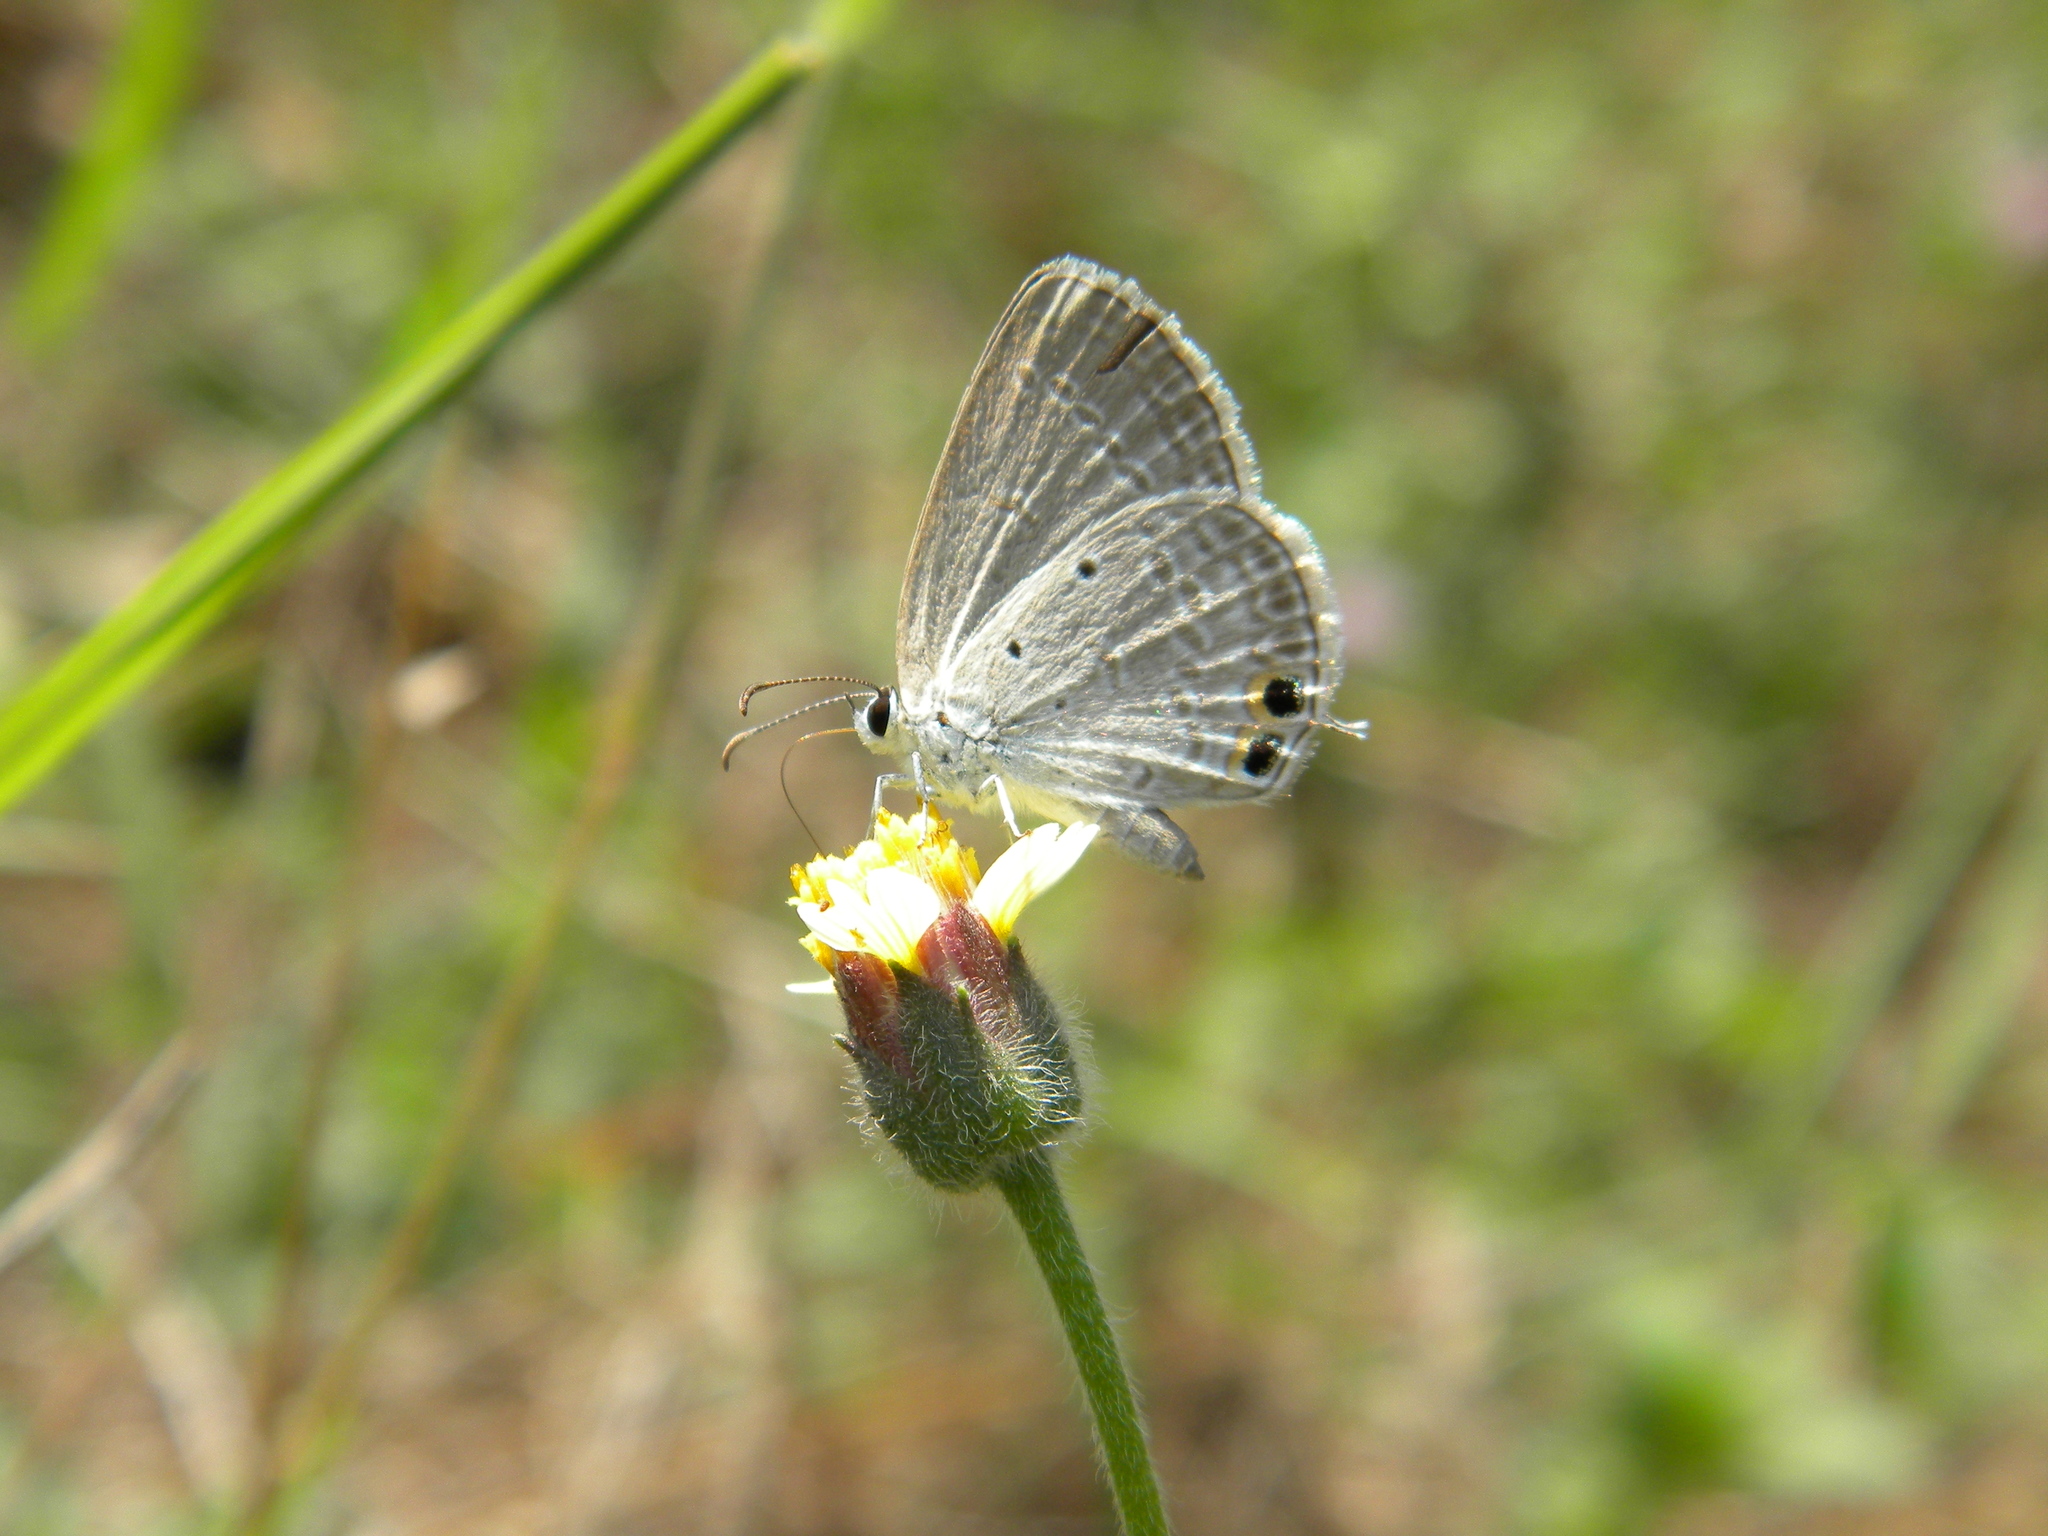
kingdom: Animalia
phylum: Arthropoda
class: Insecta
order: Lepidoptera
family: Lycaenidae
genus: Euchrysops
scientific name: Euchrysops cnejus
